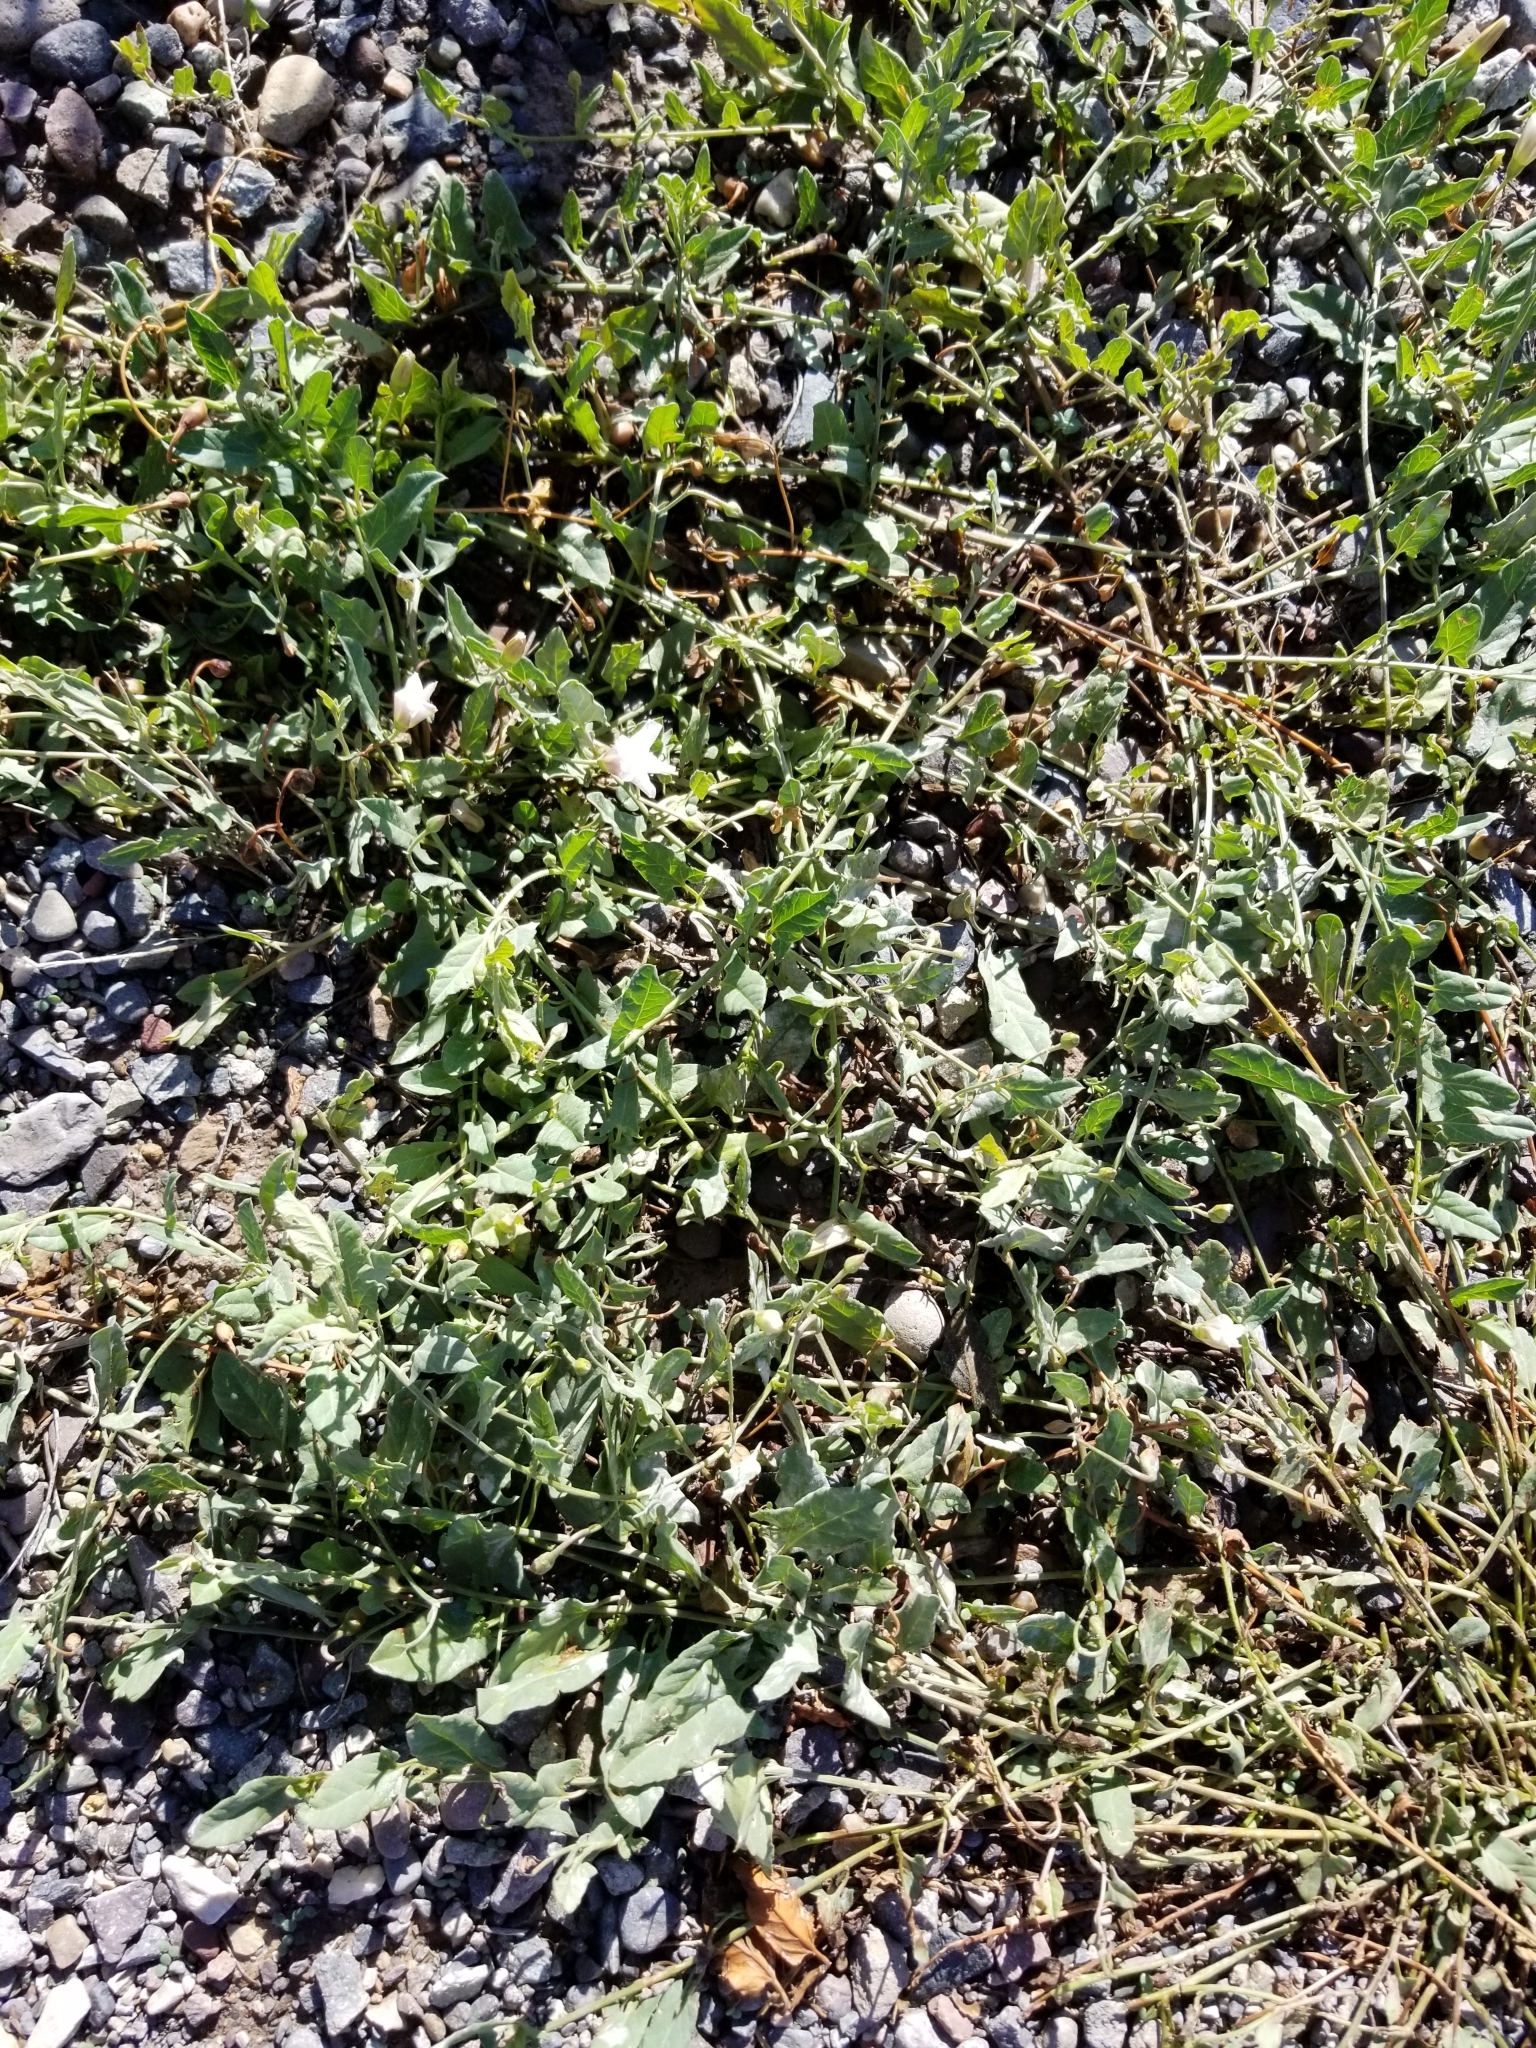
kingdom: Plantae
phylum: Tracheophyta
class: Magnoliopsida
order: Solanales
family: Convolvulaceae
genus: Convolvulus
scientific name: Convolvulus arvensis
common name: Field bindweed
